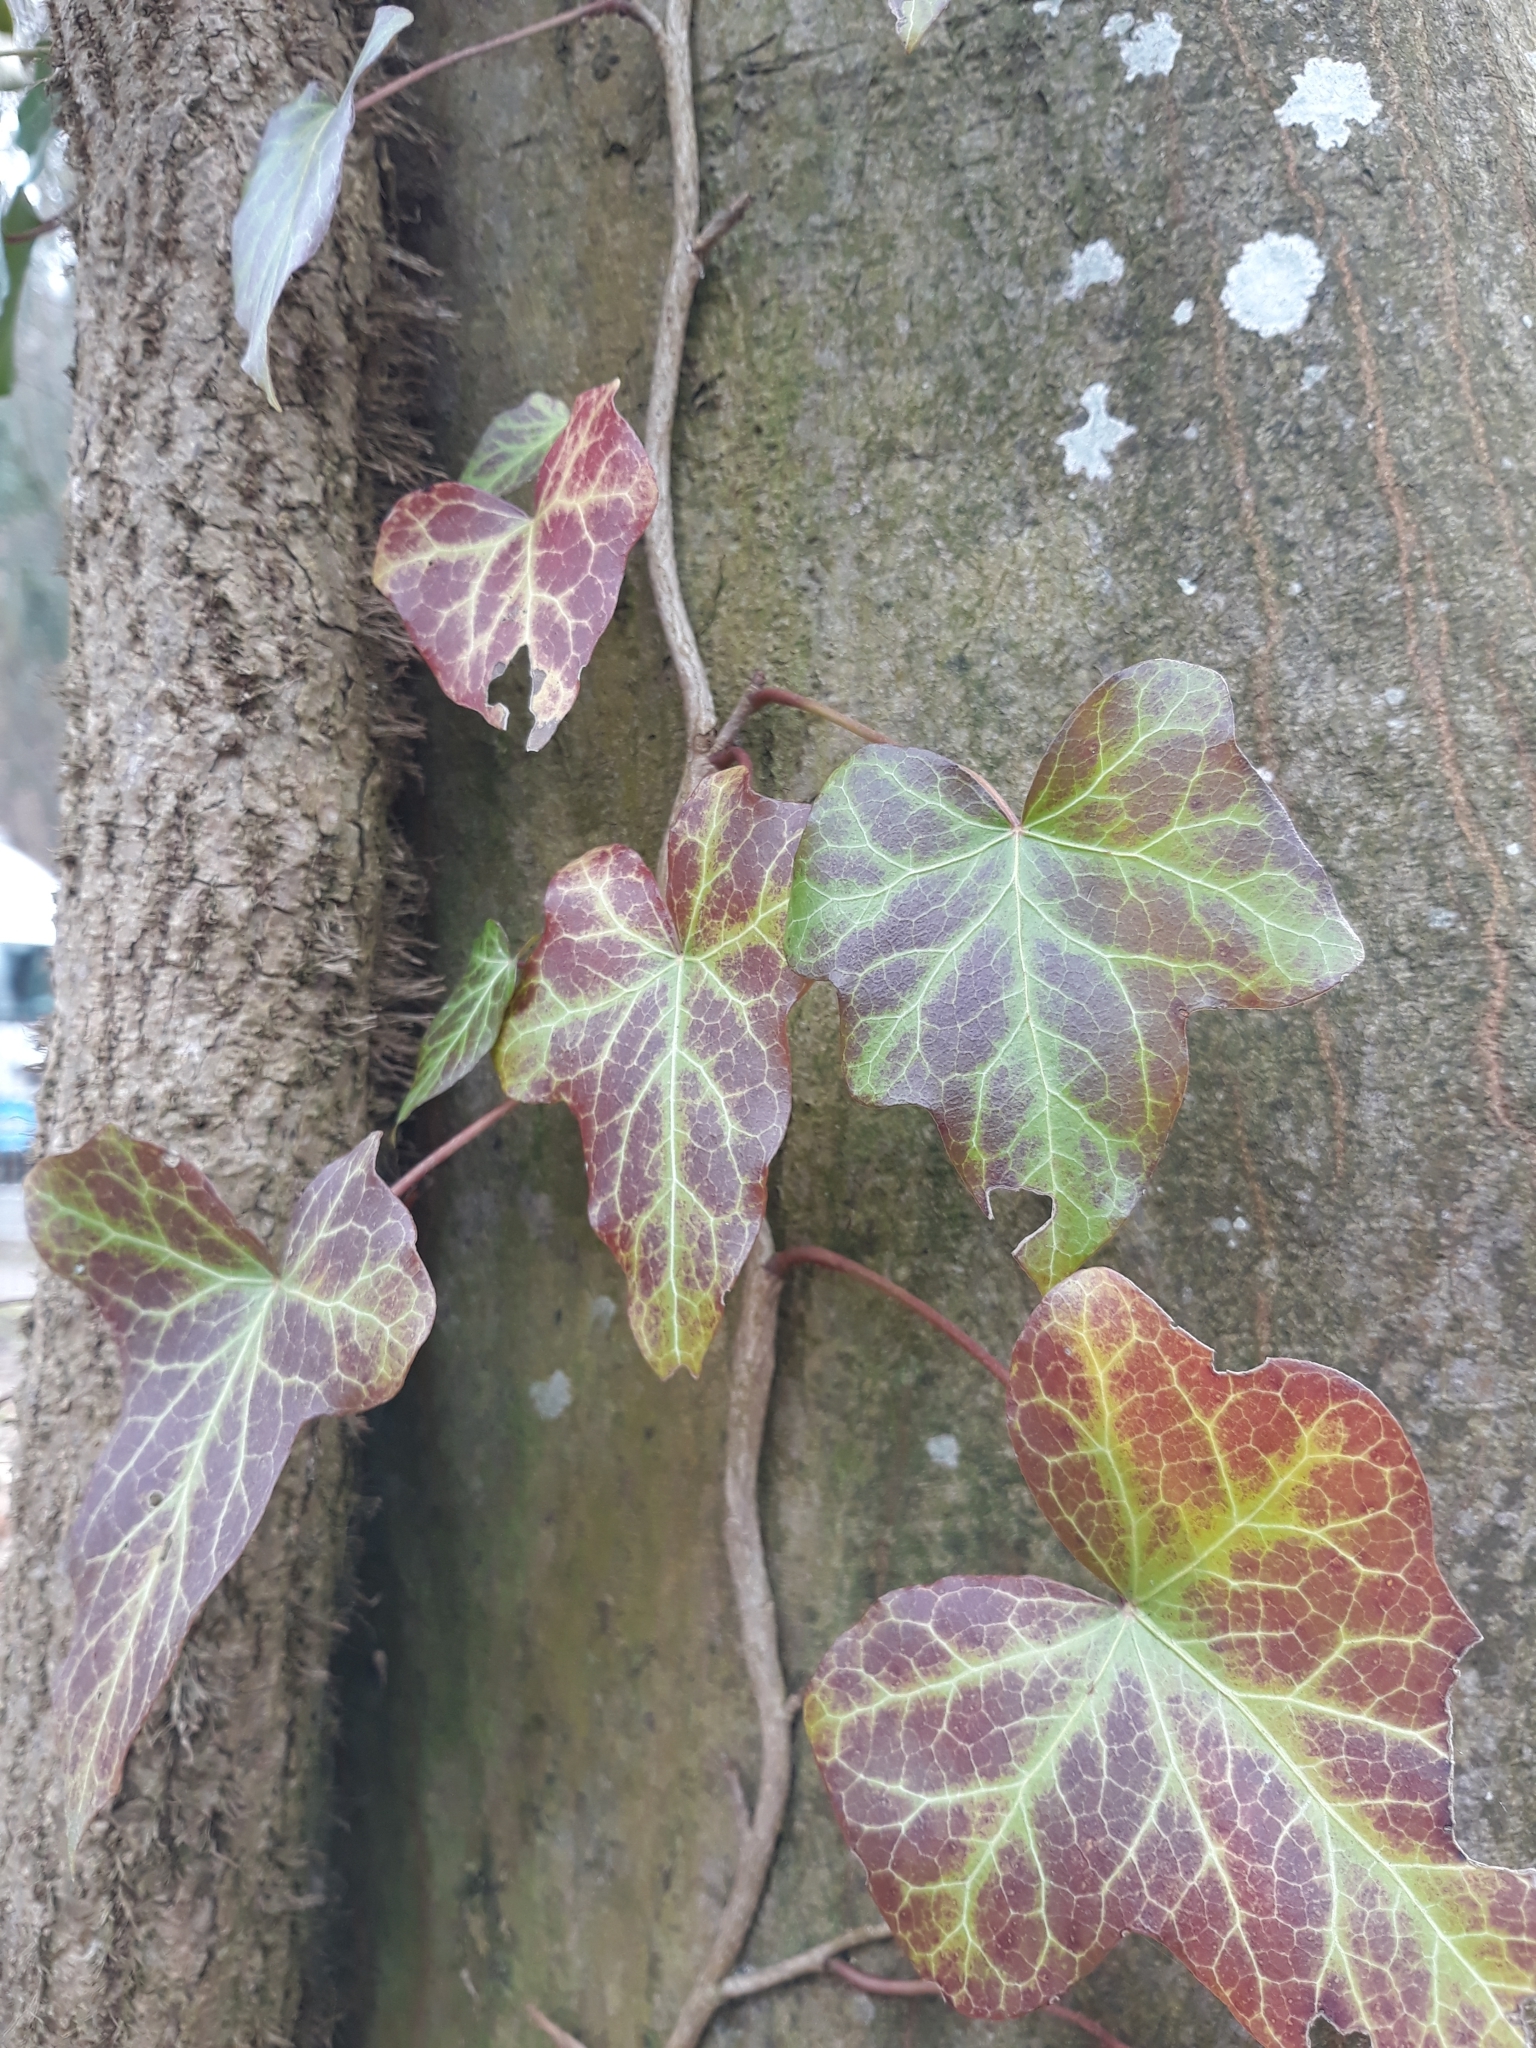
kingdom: Plantae
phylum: Tracheophyta
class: Magnoliopsida
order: Apiales
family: Araliaceae
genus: Hedera
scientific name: Hedera helix
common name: Ivy
